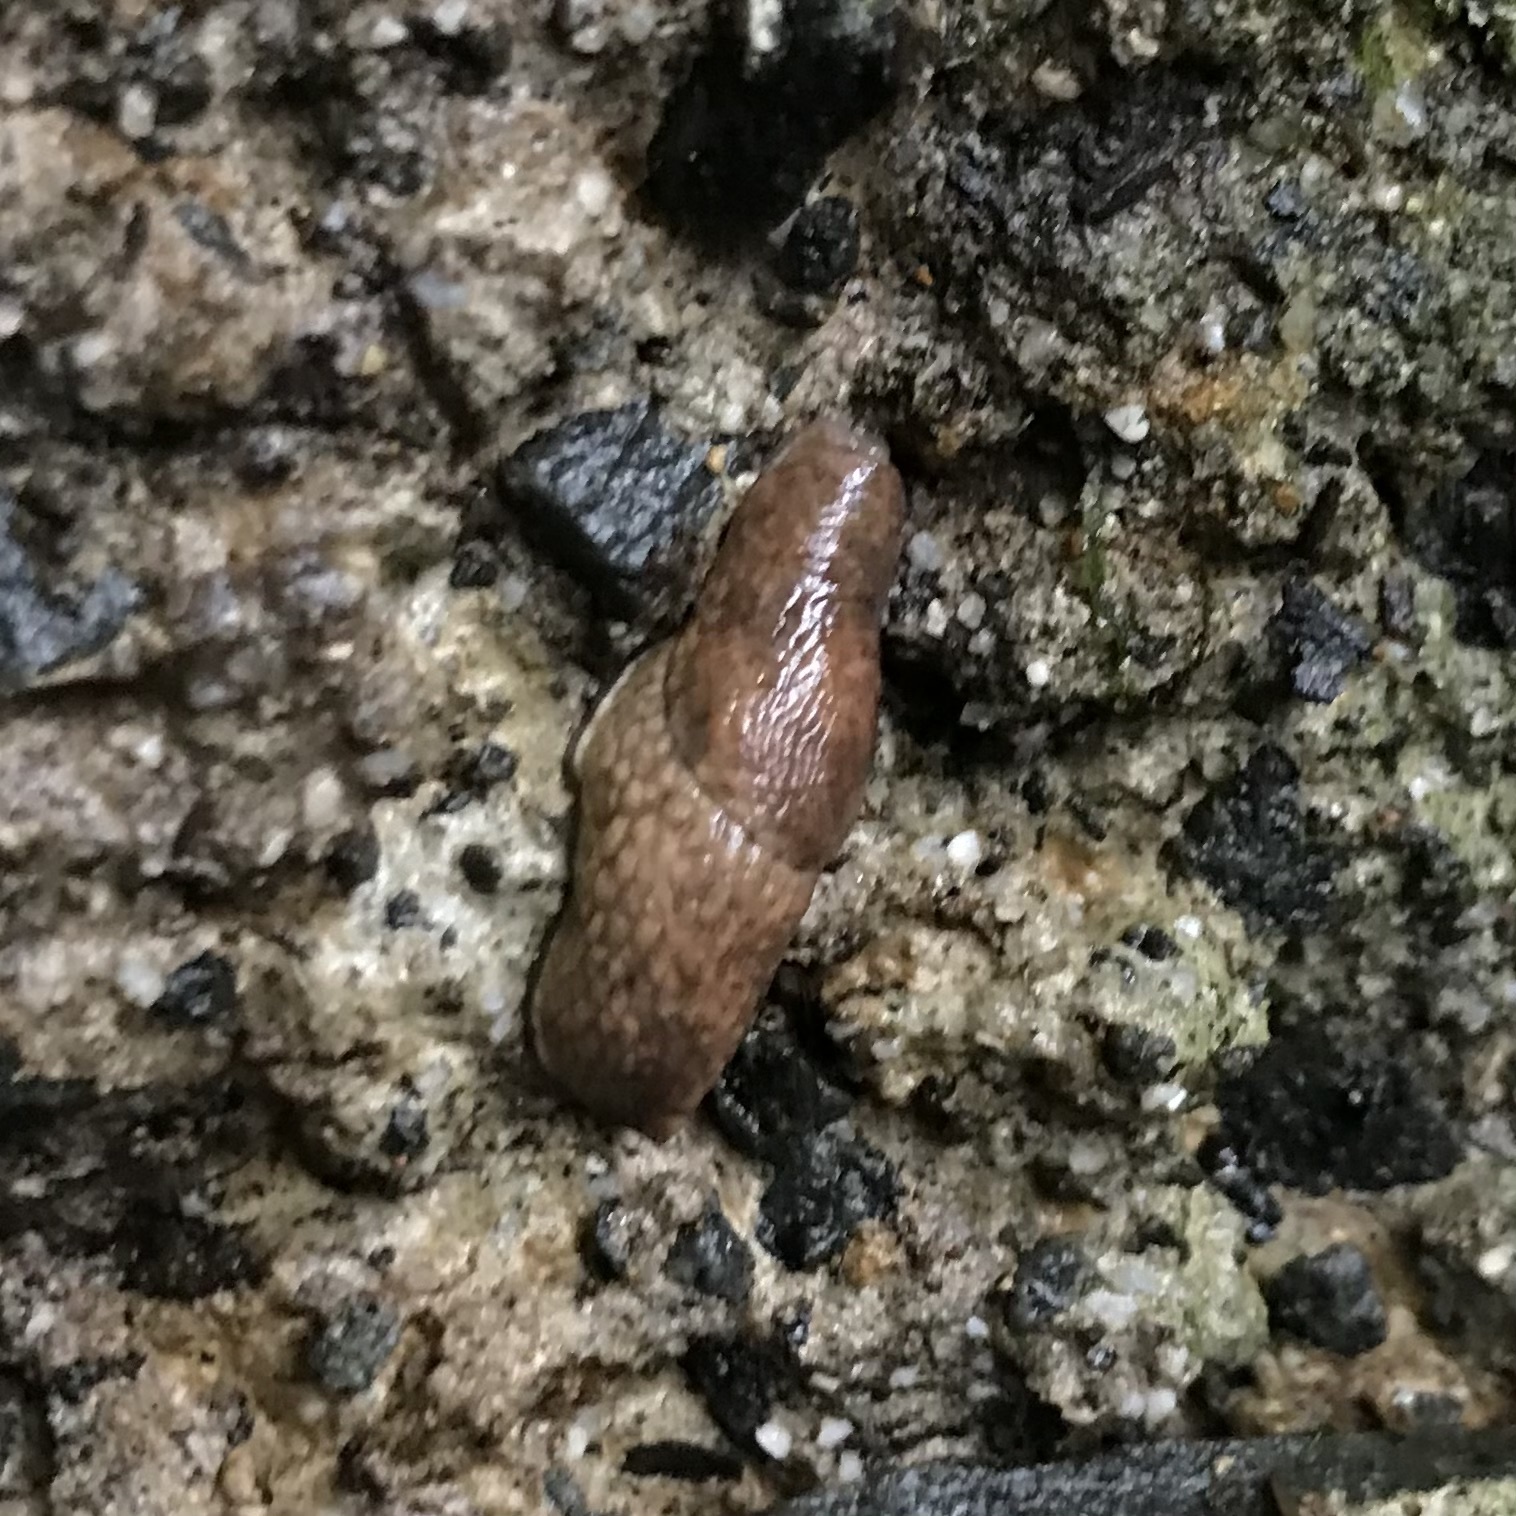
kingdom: Animalia
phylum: Mollusca
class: Gastropoda
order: Stylommatophora
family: Agriolimacidae
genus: Deroceras
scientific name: Deroceras reticulatum
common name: Gray field slug
